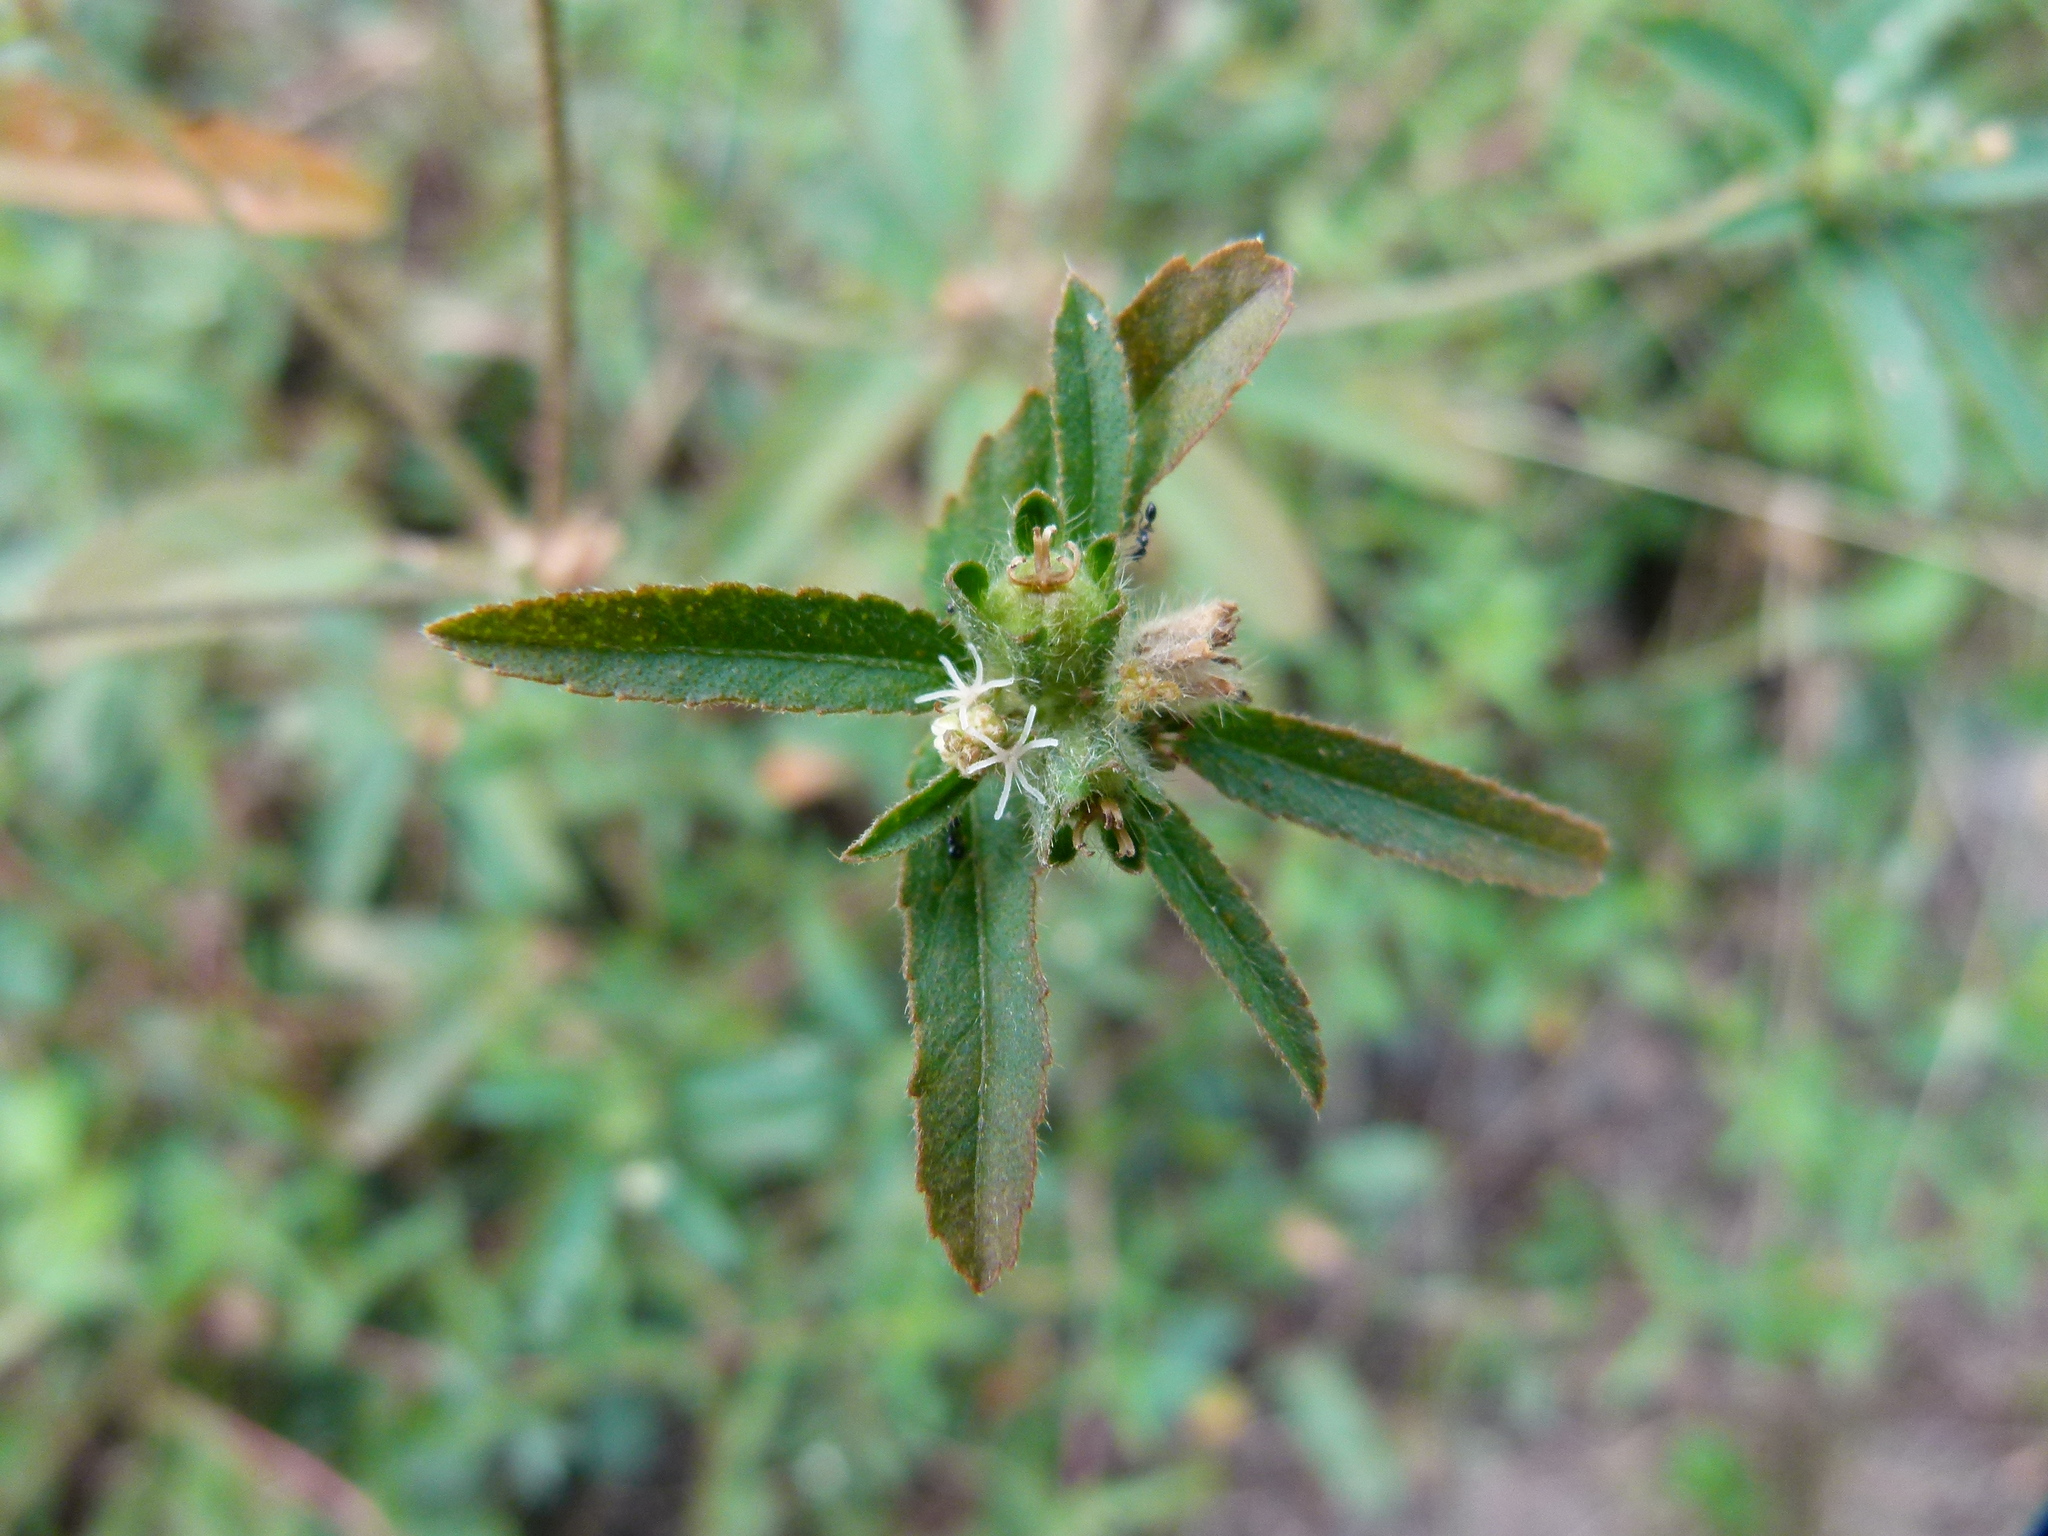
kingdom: Plantae
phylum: Tracheophyta
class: Magnoliopsida
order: Malpighiales
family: Euphorbiaceae
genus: Croton
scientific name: Croton glandulosus
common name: Tropic croton
